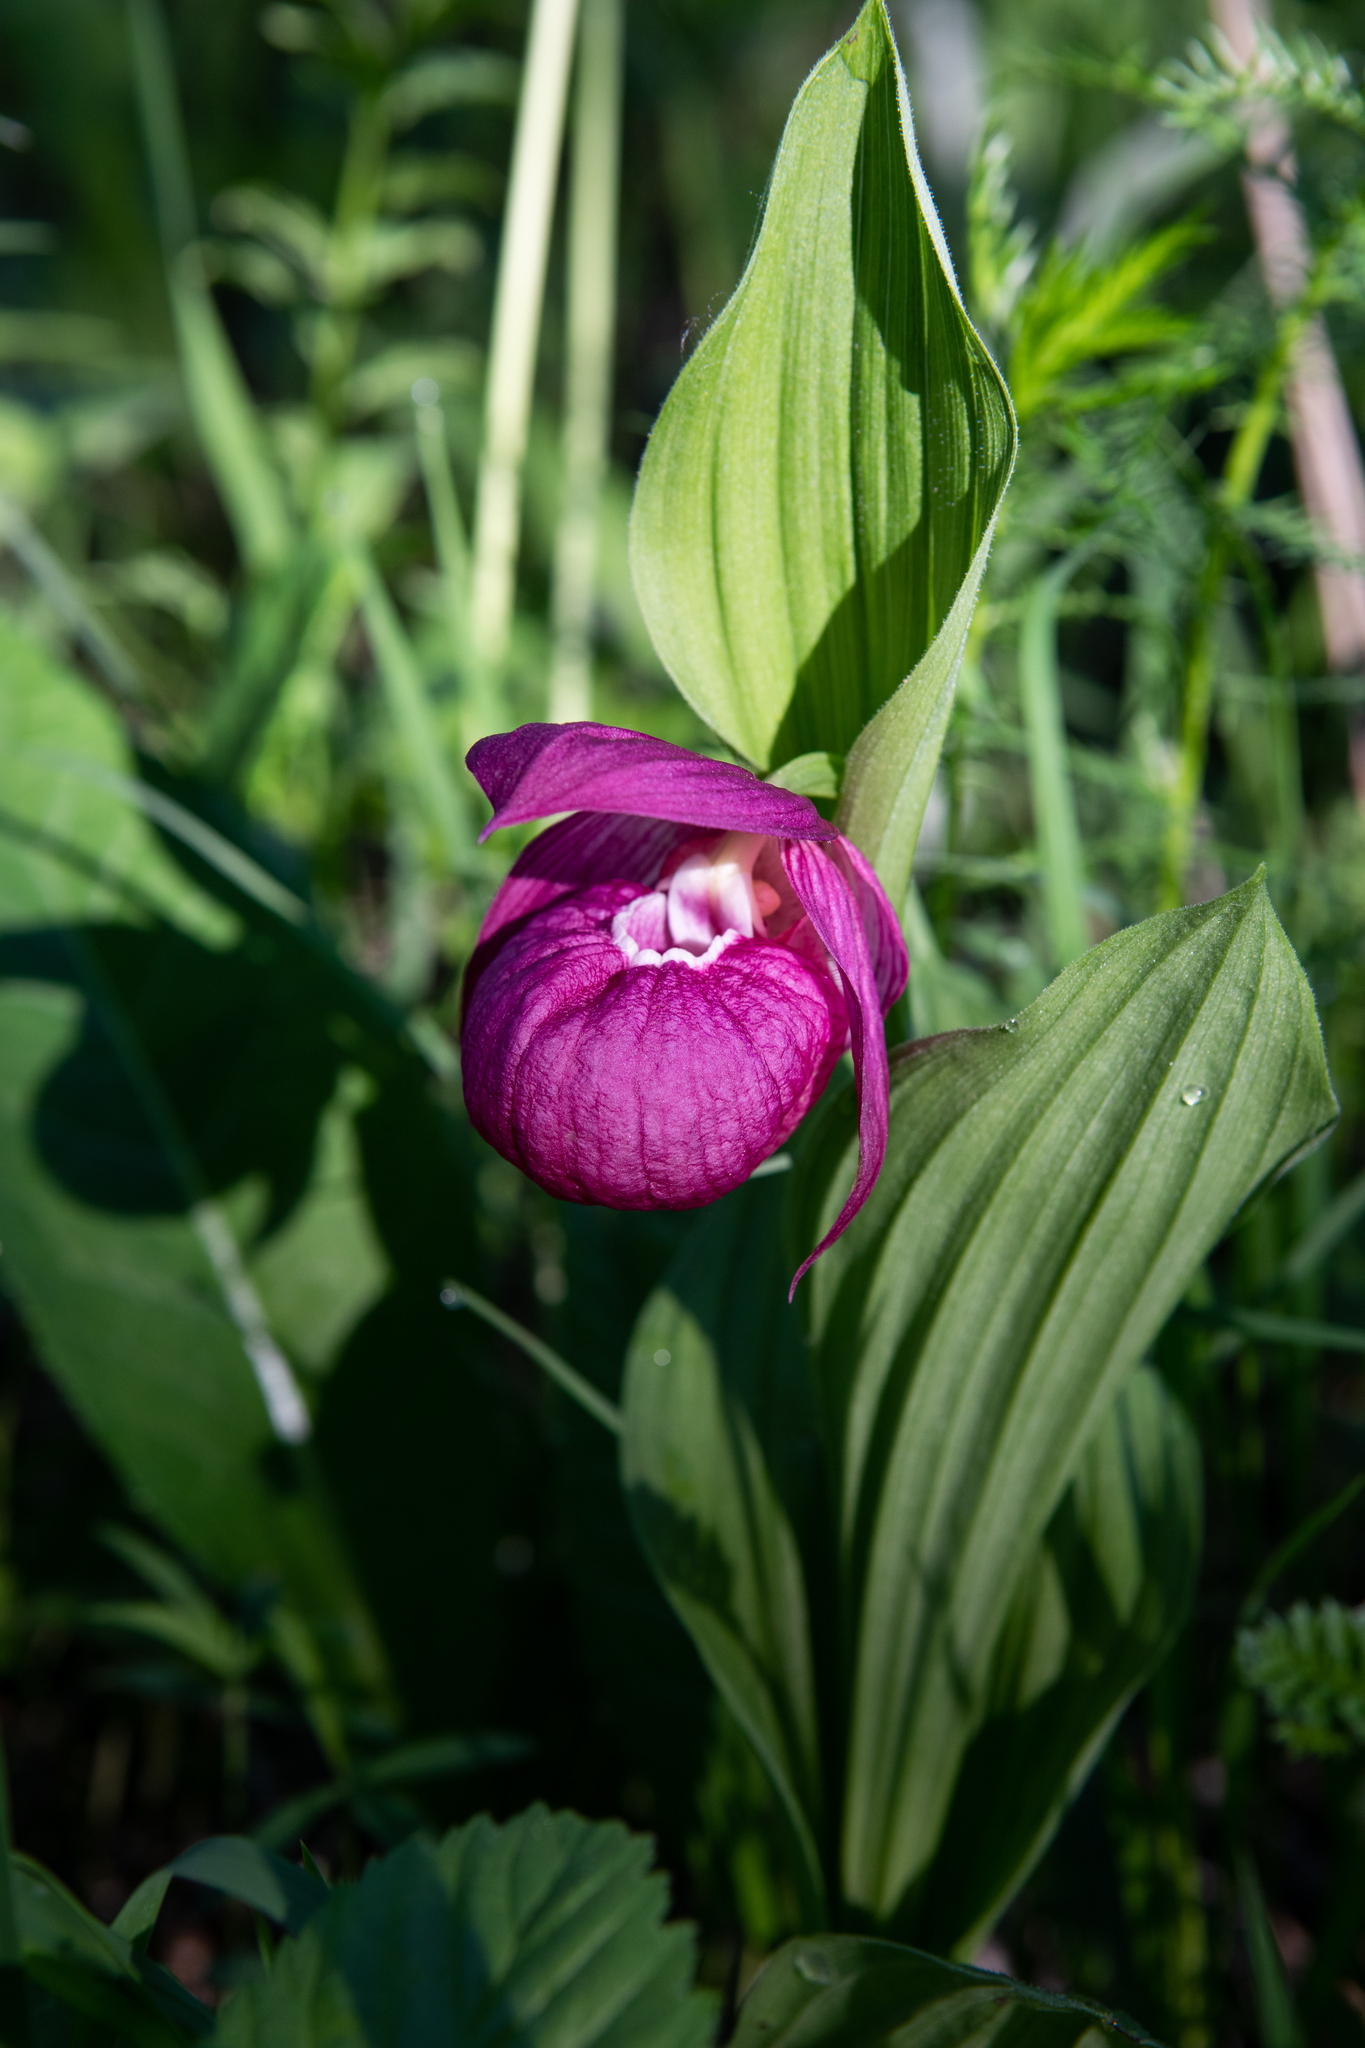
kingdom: Plantae
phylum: Tracheophyta
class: Liliopsida
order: Asparagales
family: Orchidaceae
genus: Cypripedium
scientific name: Cypripedium macranthos
